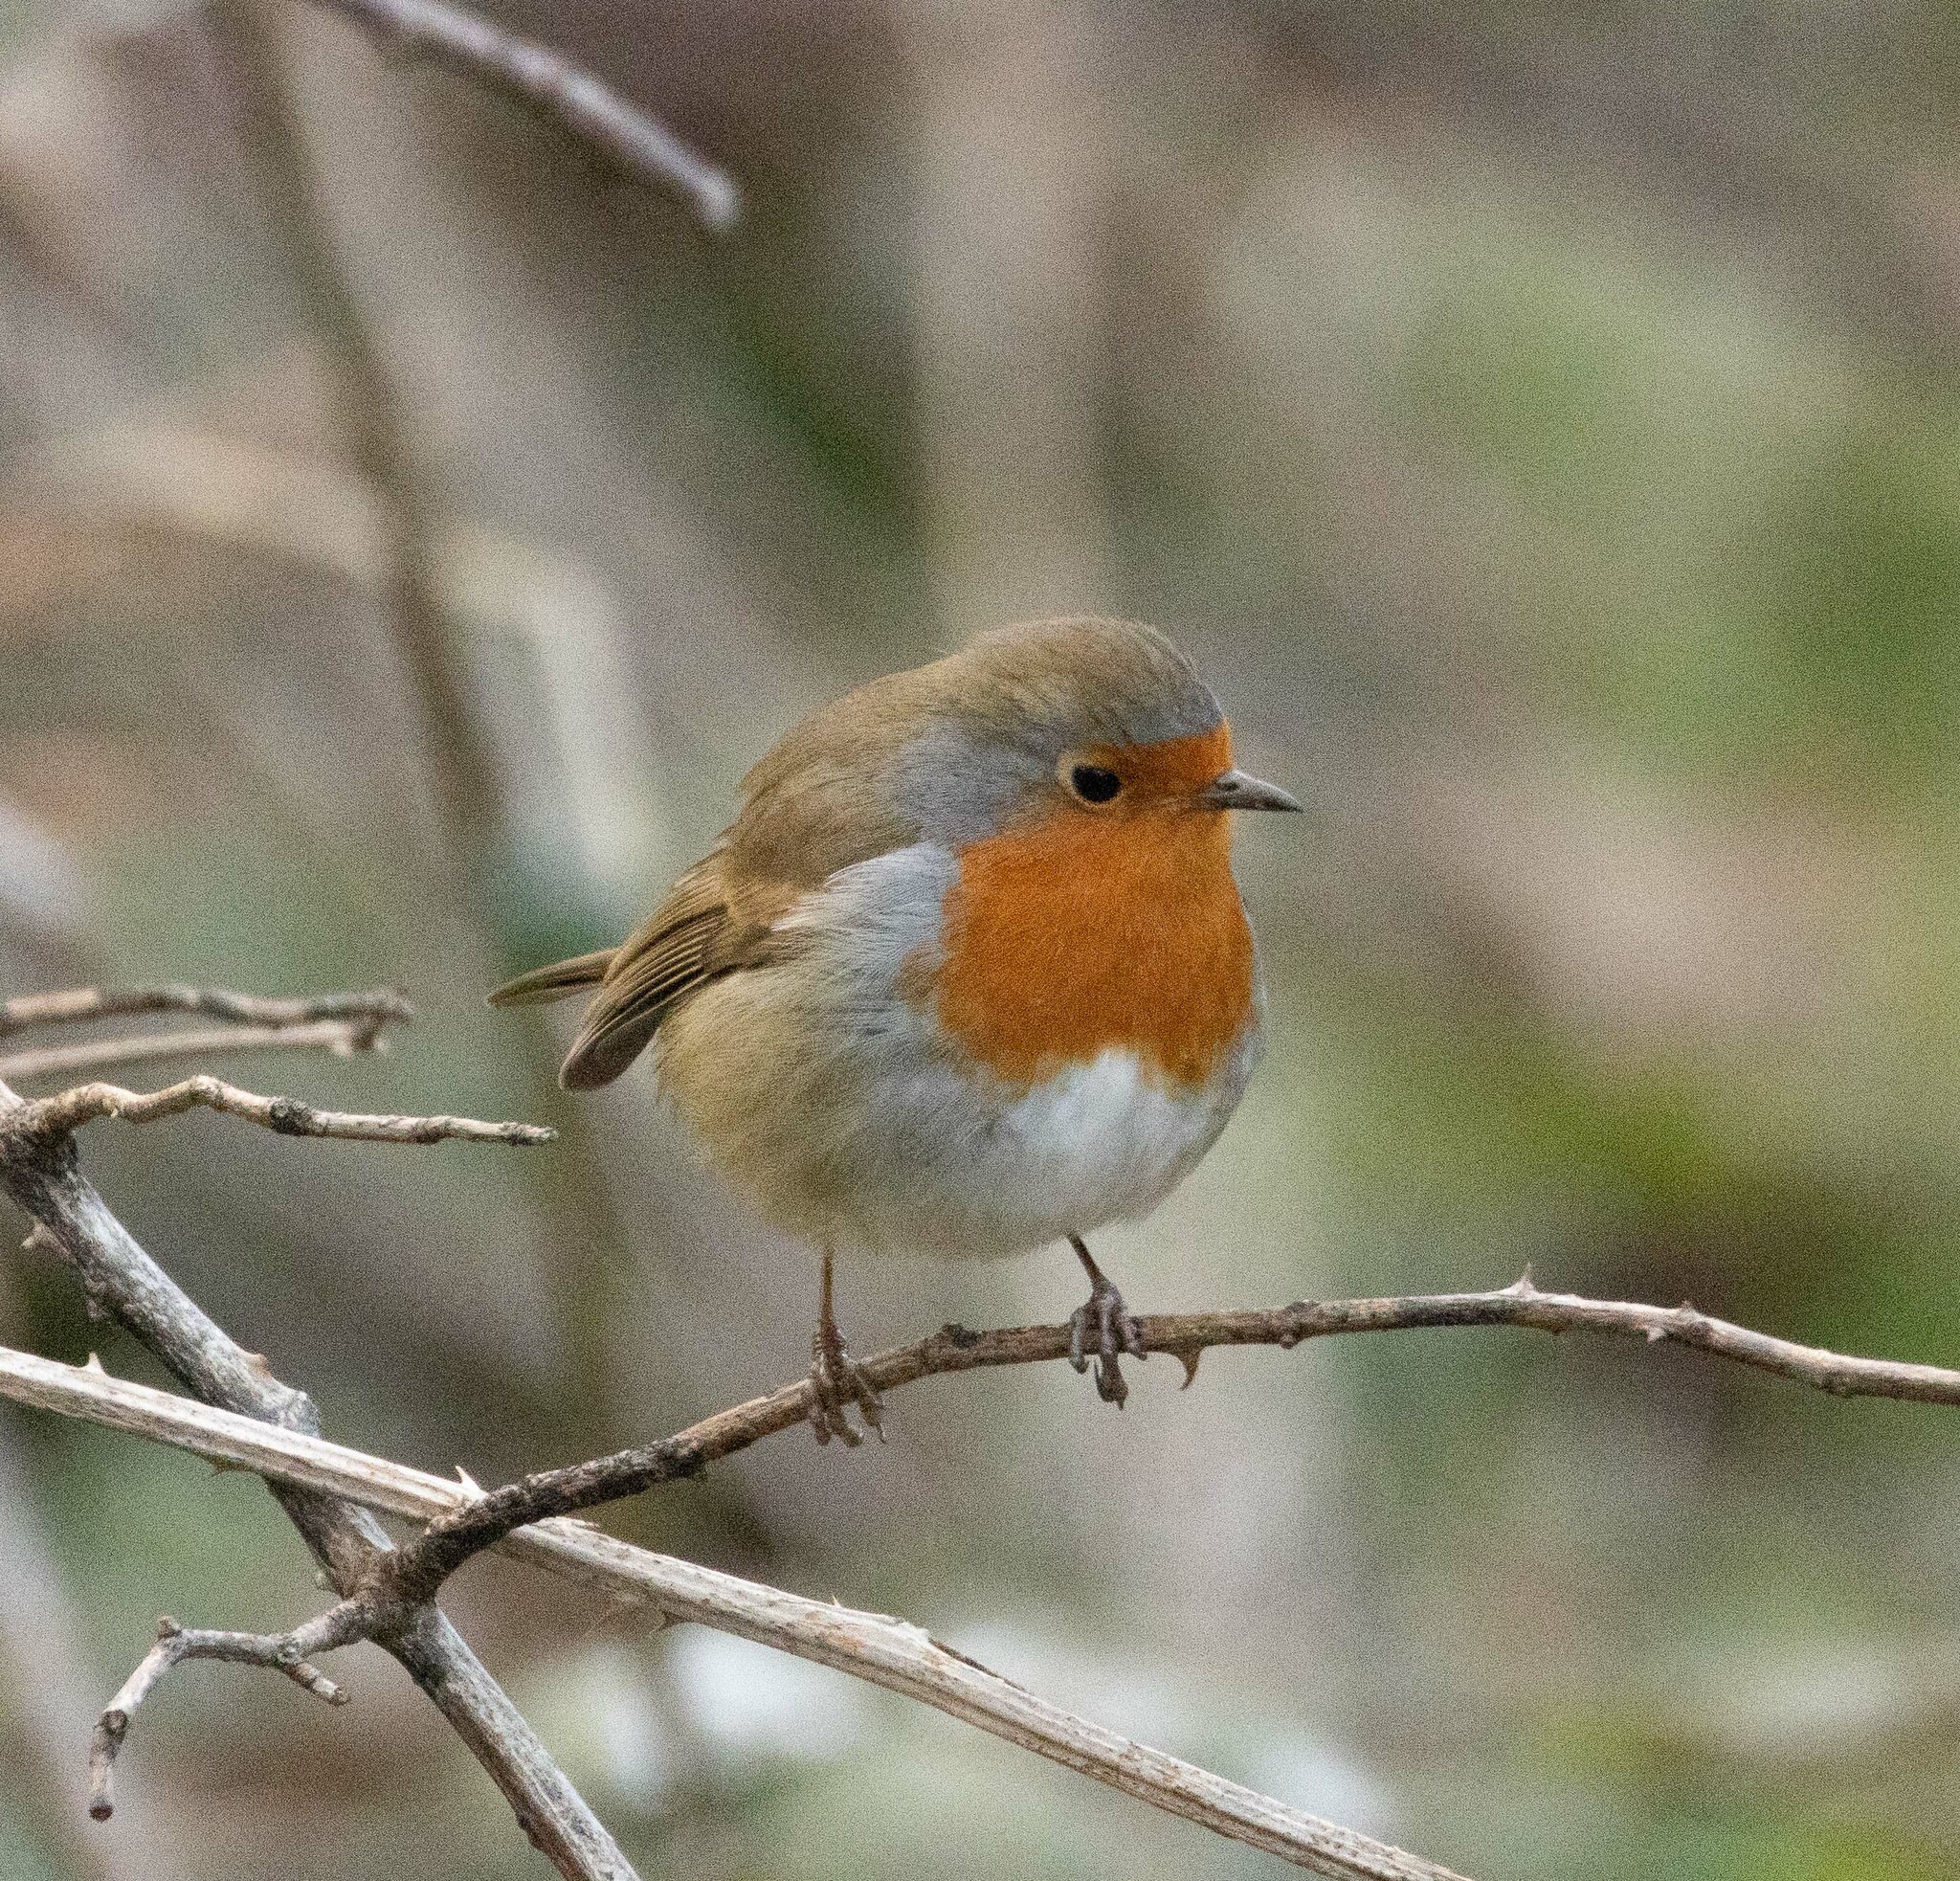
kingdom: Animalia
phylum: Chordata
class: Aves
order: Passeriformes
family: Muscicapidae
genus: Erithacus
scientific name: Erithacus rubecula
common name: European robin
